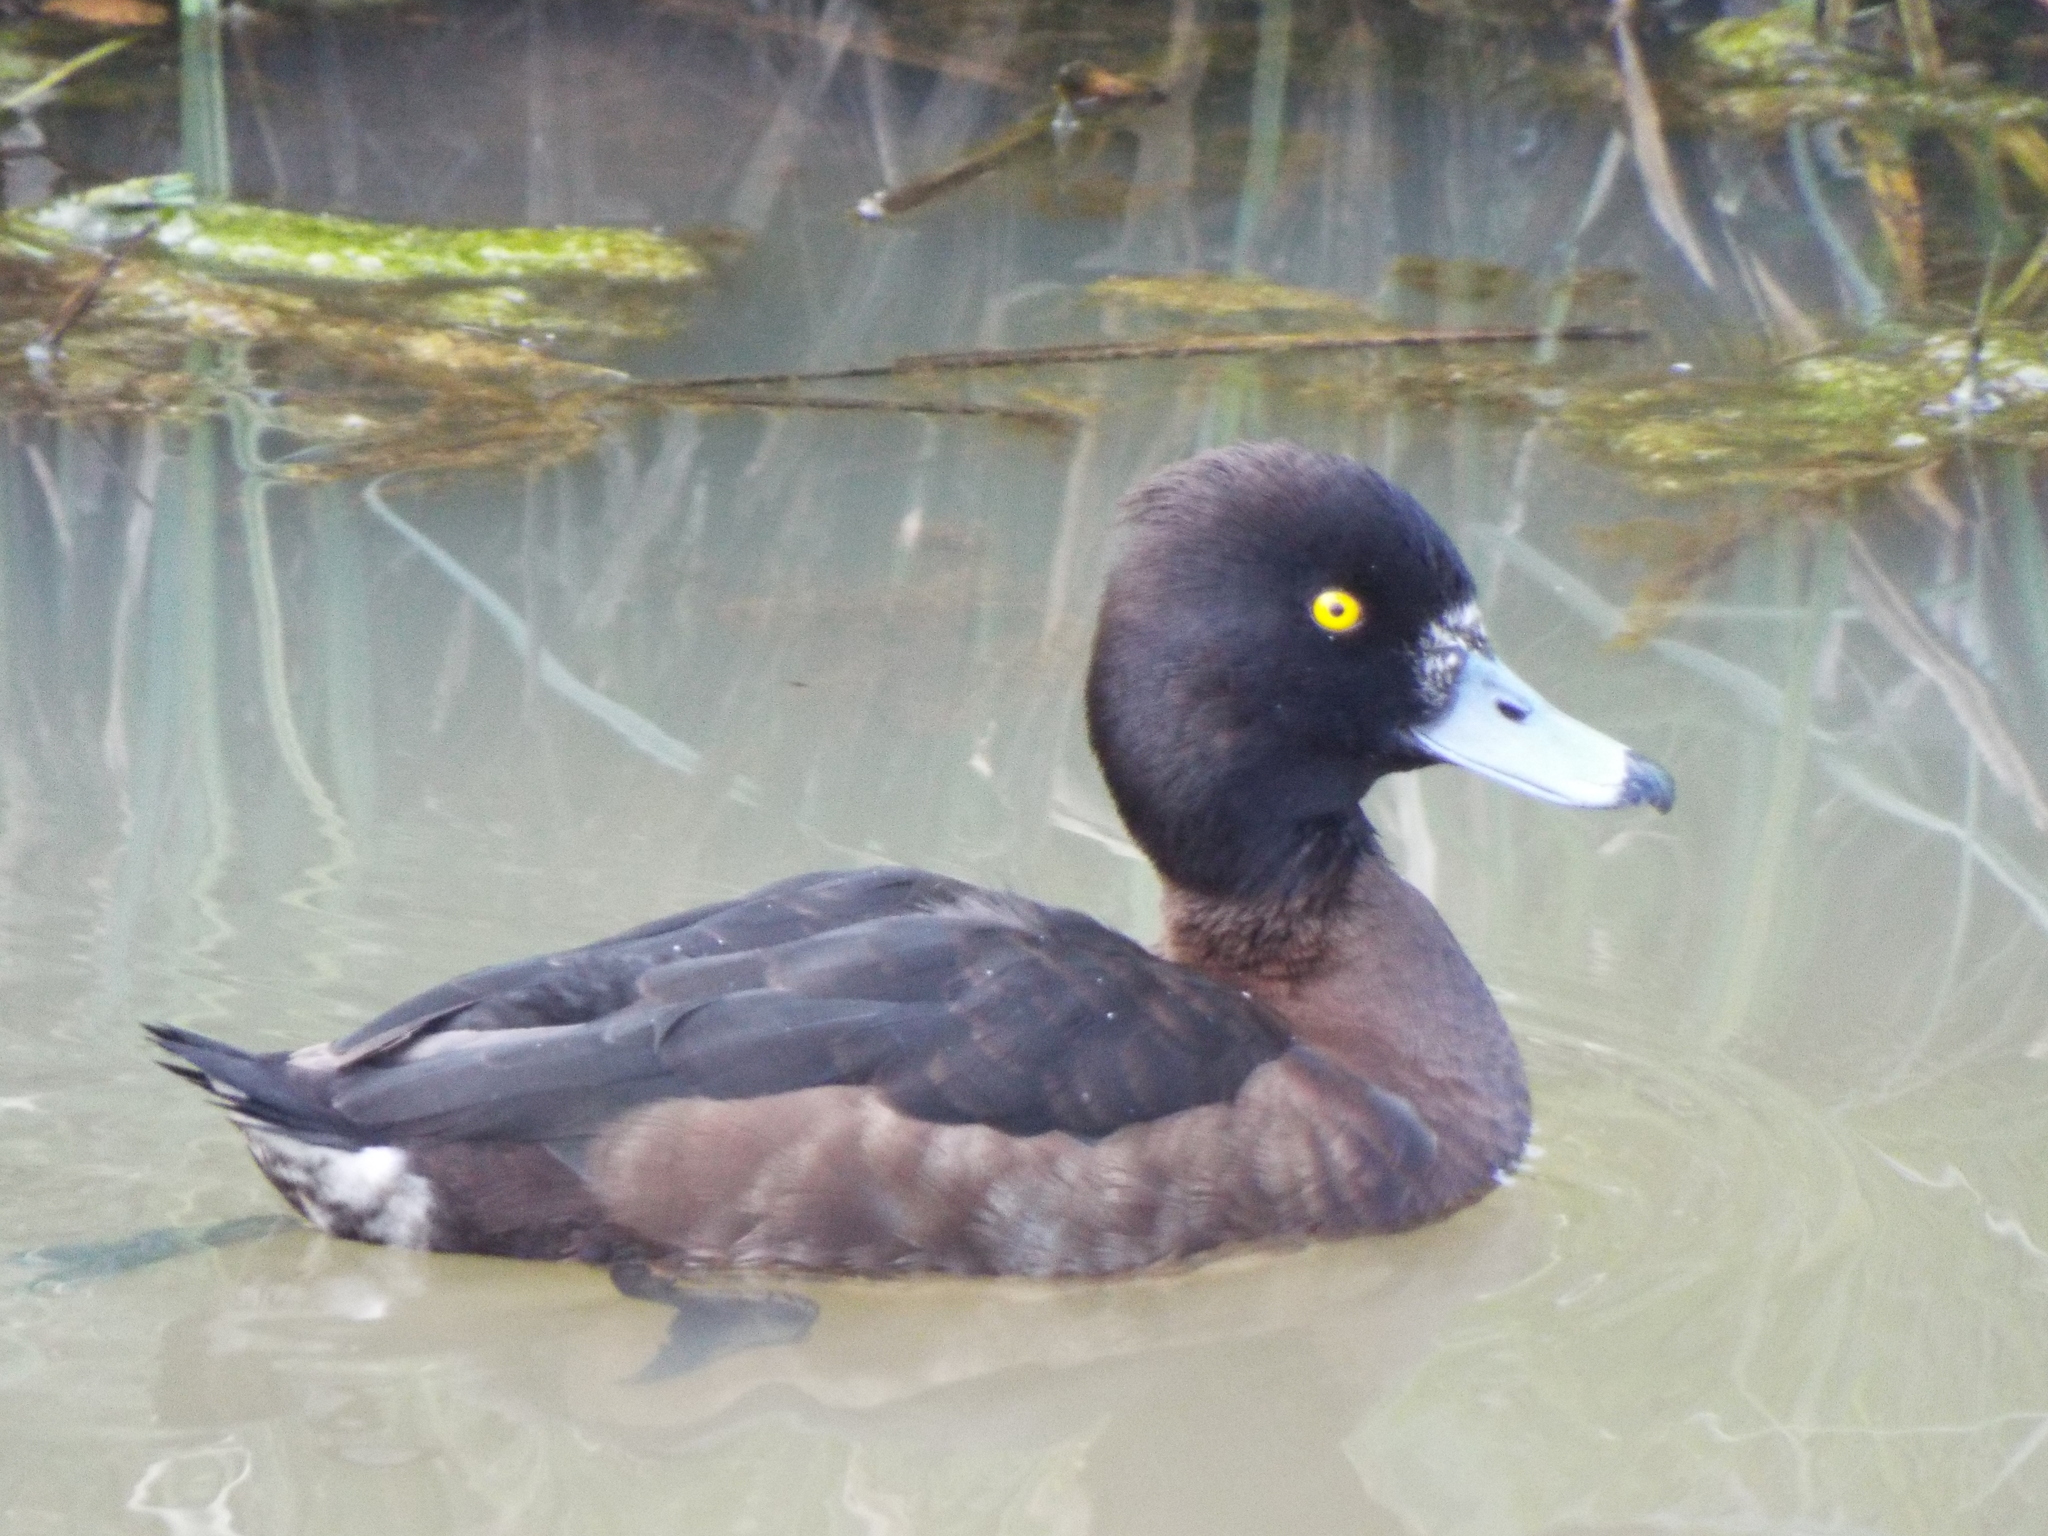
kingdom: Animalia
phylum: Chordata
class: Aves
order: Anseriformes
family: Anatidae
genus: Aythya
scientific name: Aythya fuligula
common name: Tufted duck
